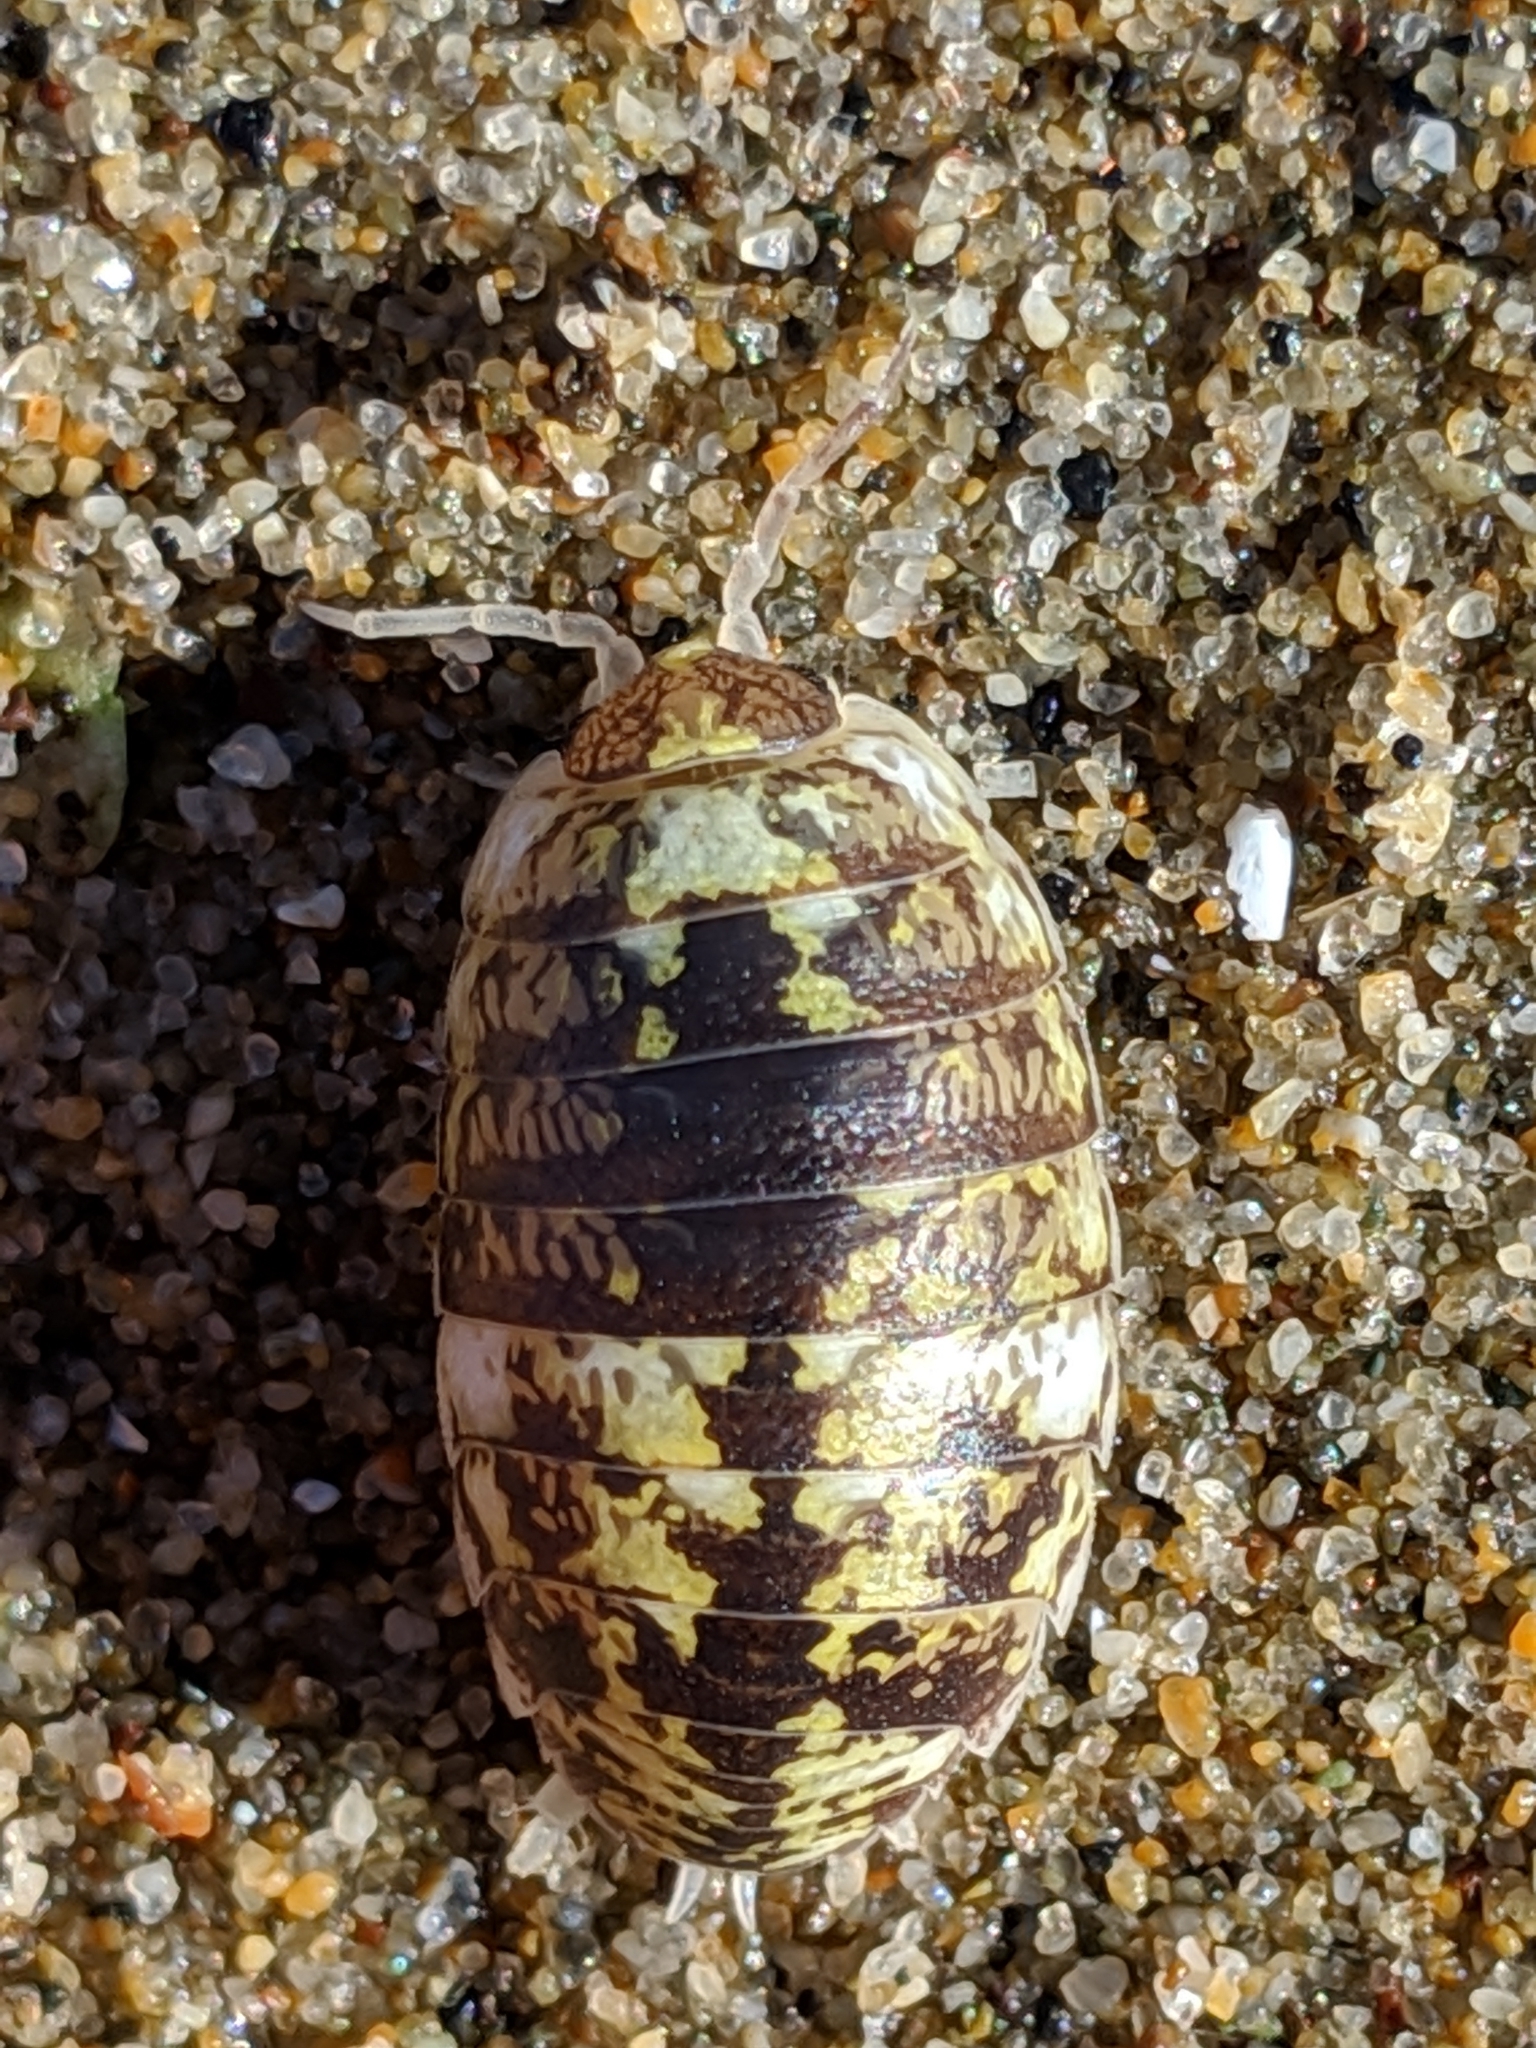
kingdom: Animalia
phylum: Arthropoda
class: Malacostraca
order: Isopoda
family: Alloniscidae
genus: Alloniscus
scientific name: Alloniscus perconvexus
